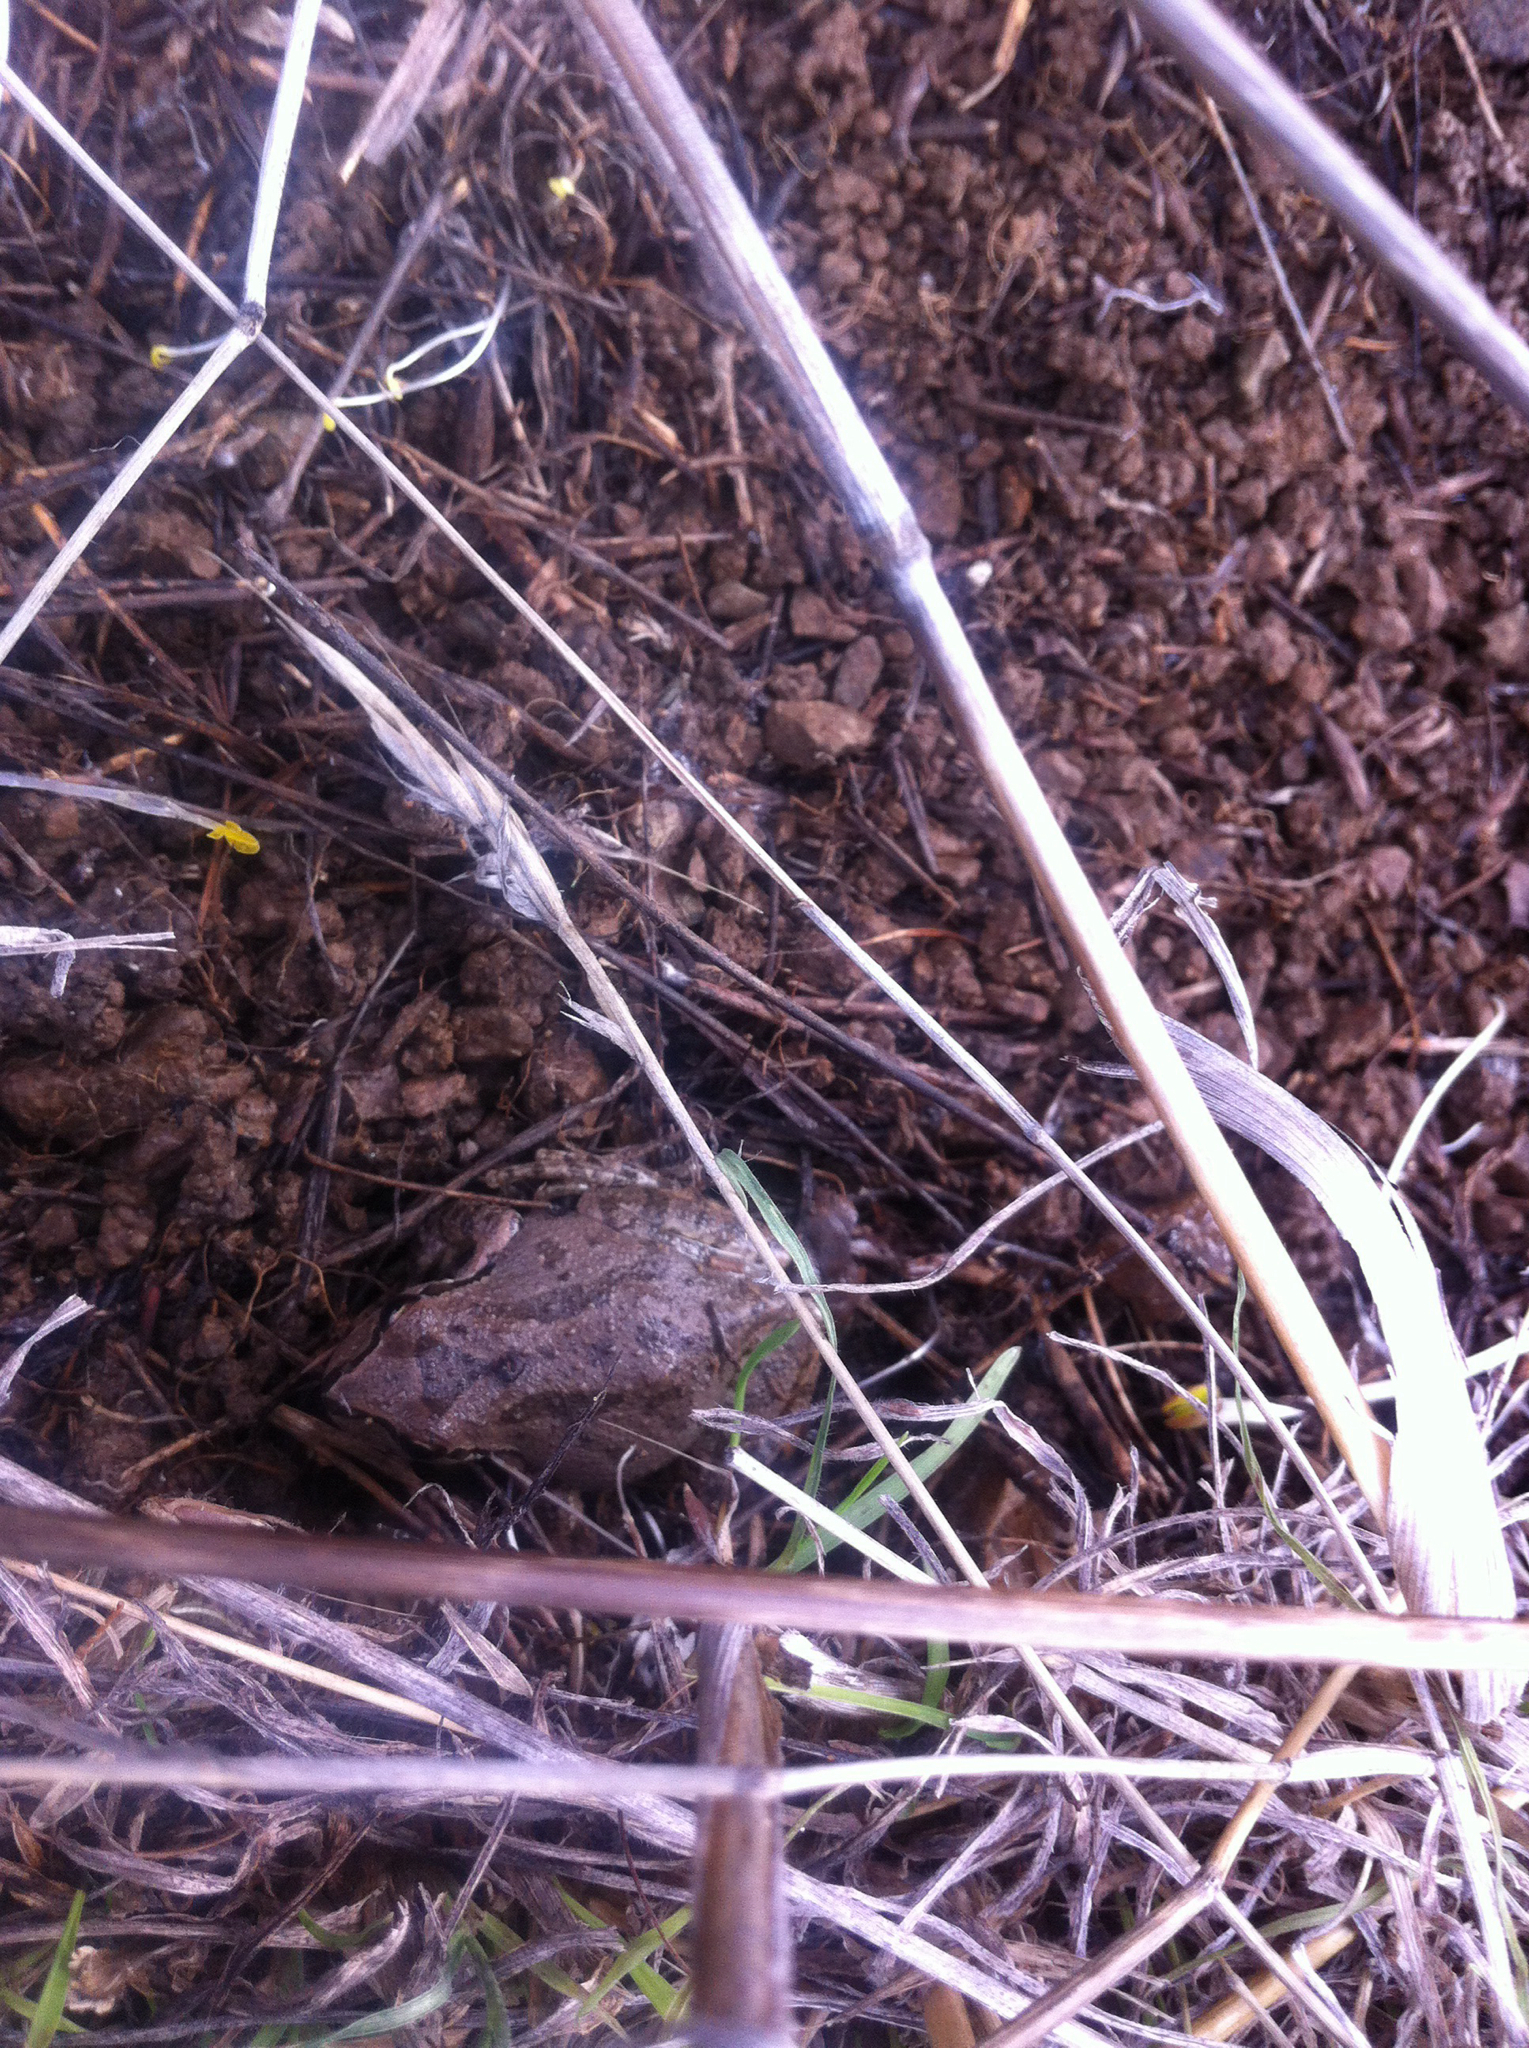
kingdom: Animalia
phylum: Chordata
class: Amphibia
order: Anura
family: Hylidae
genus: Pseudacris
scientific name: Pseudacris regilla
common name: Pacific chorus frog
